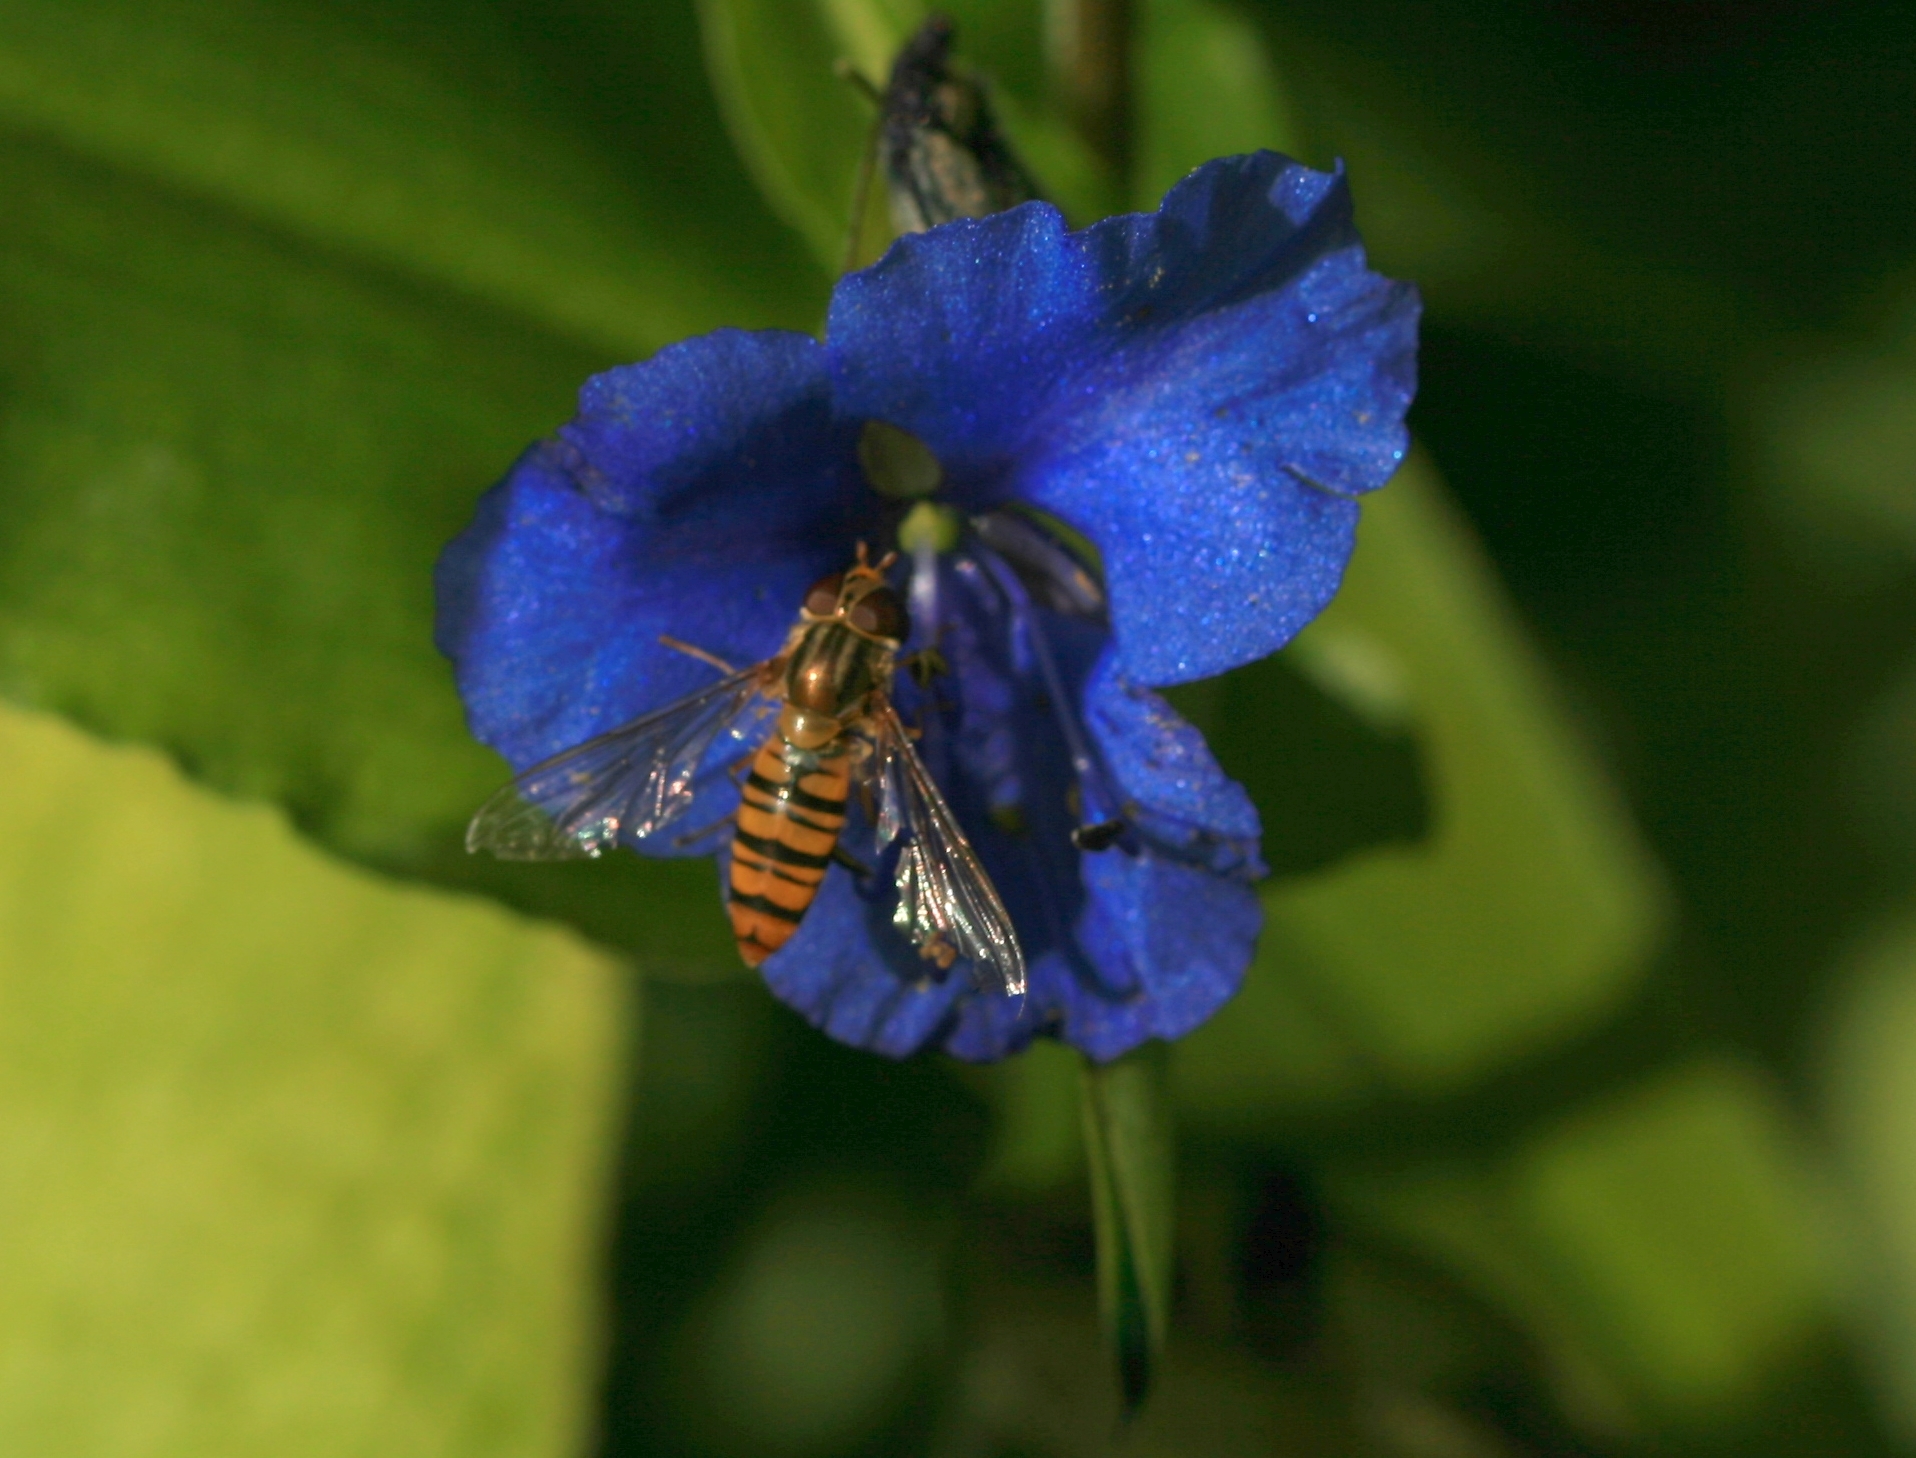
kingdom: Animalia
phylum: Arthropoda
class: Insecta
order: Diptera
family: Syrphidae
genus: Episyrphus
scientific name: Episyrphus balteatus
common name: Marmalade hoverfly
